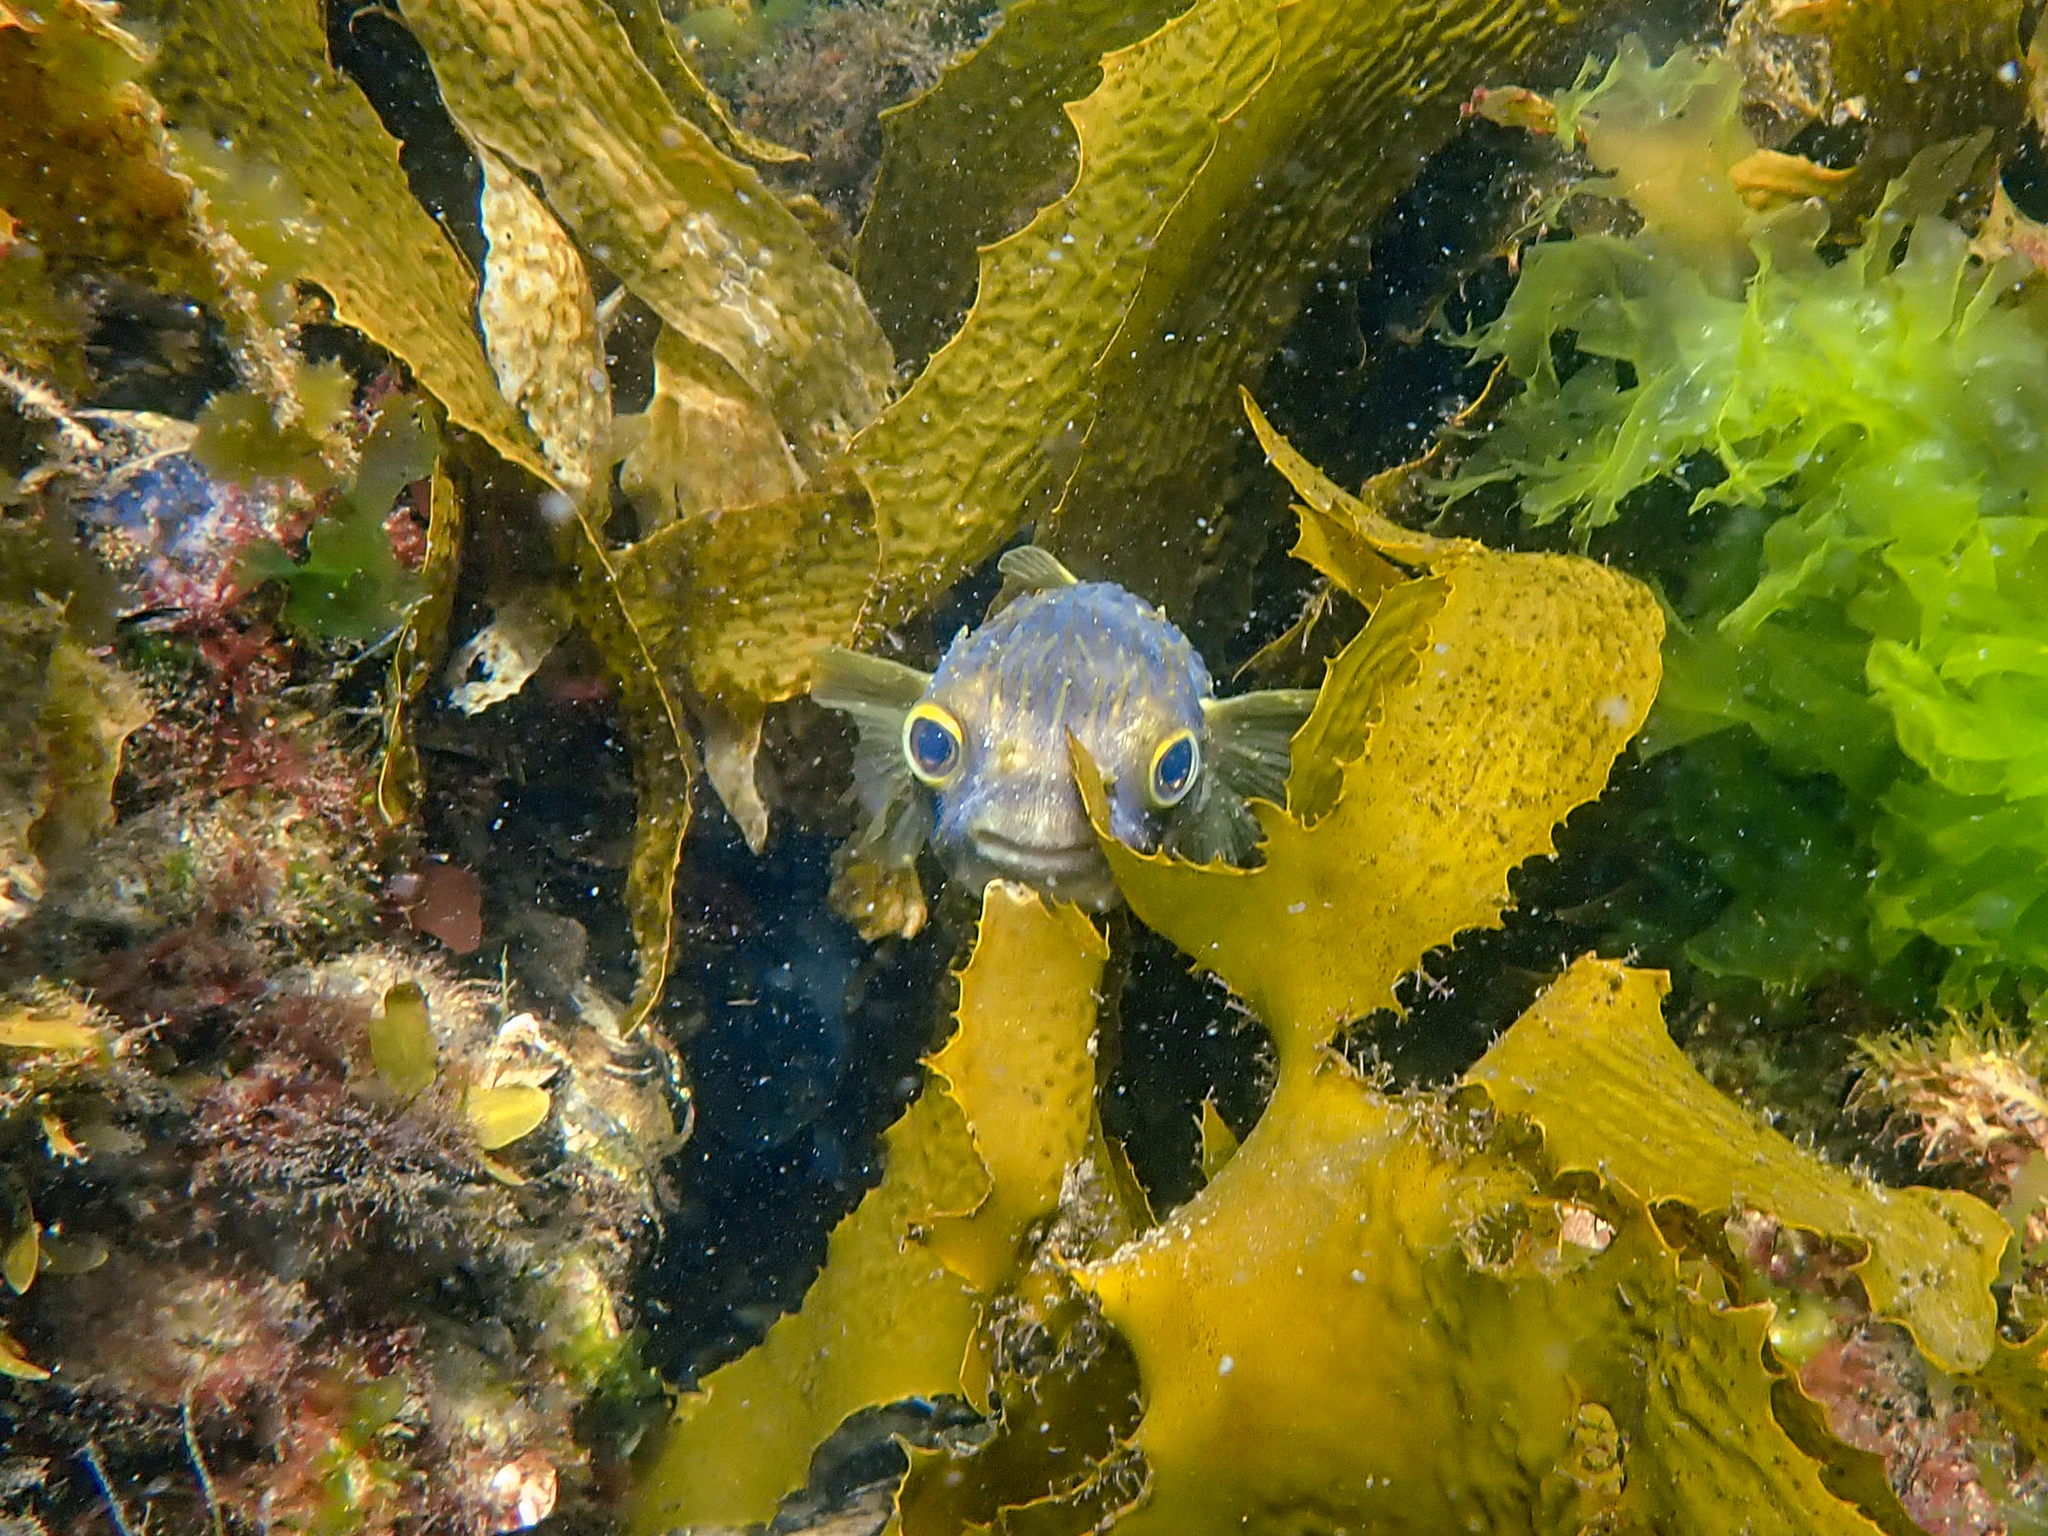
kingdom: Animalia
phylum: Chordata
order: Tetraodontiformes
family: Diodontidae
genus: Diodon
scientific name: Diodon nicthemerus
